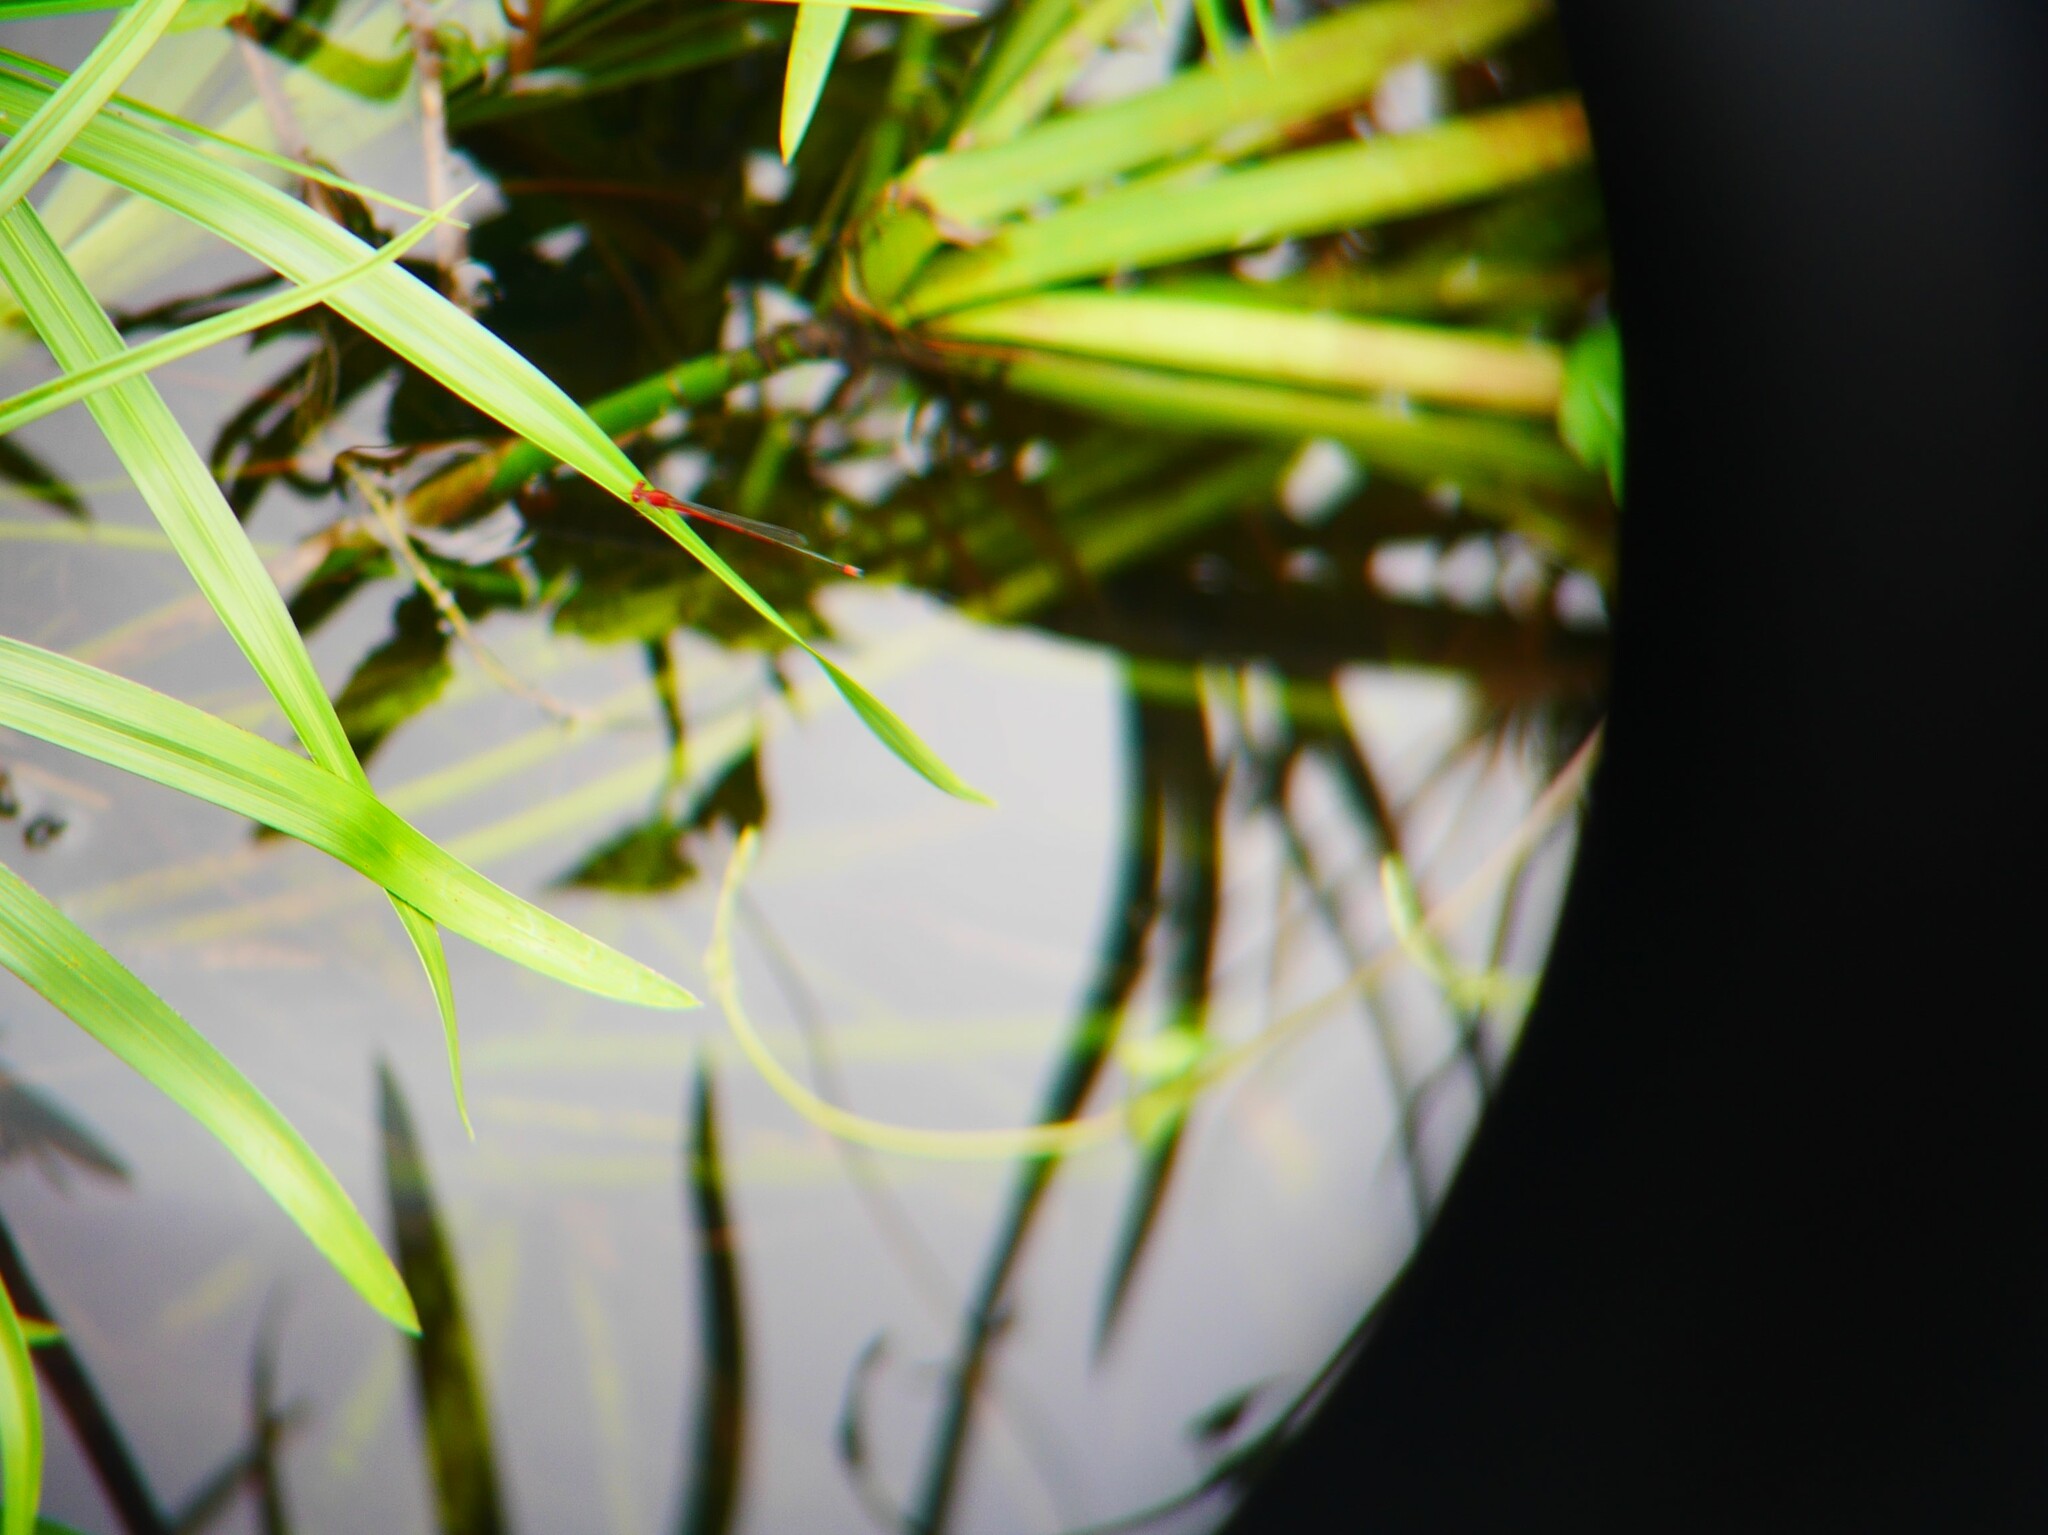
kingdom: Animalia
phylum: Arthropoda
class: Insecta
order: Odonata
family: Coenagrionidae
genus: Pseudagrion
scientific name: Pseudagrion pilidorsum
